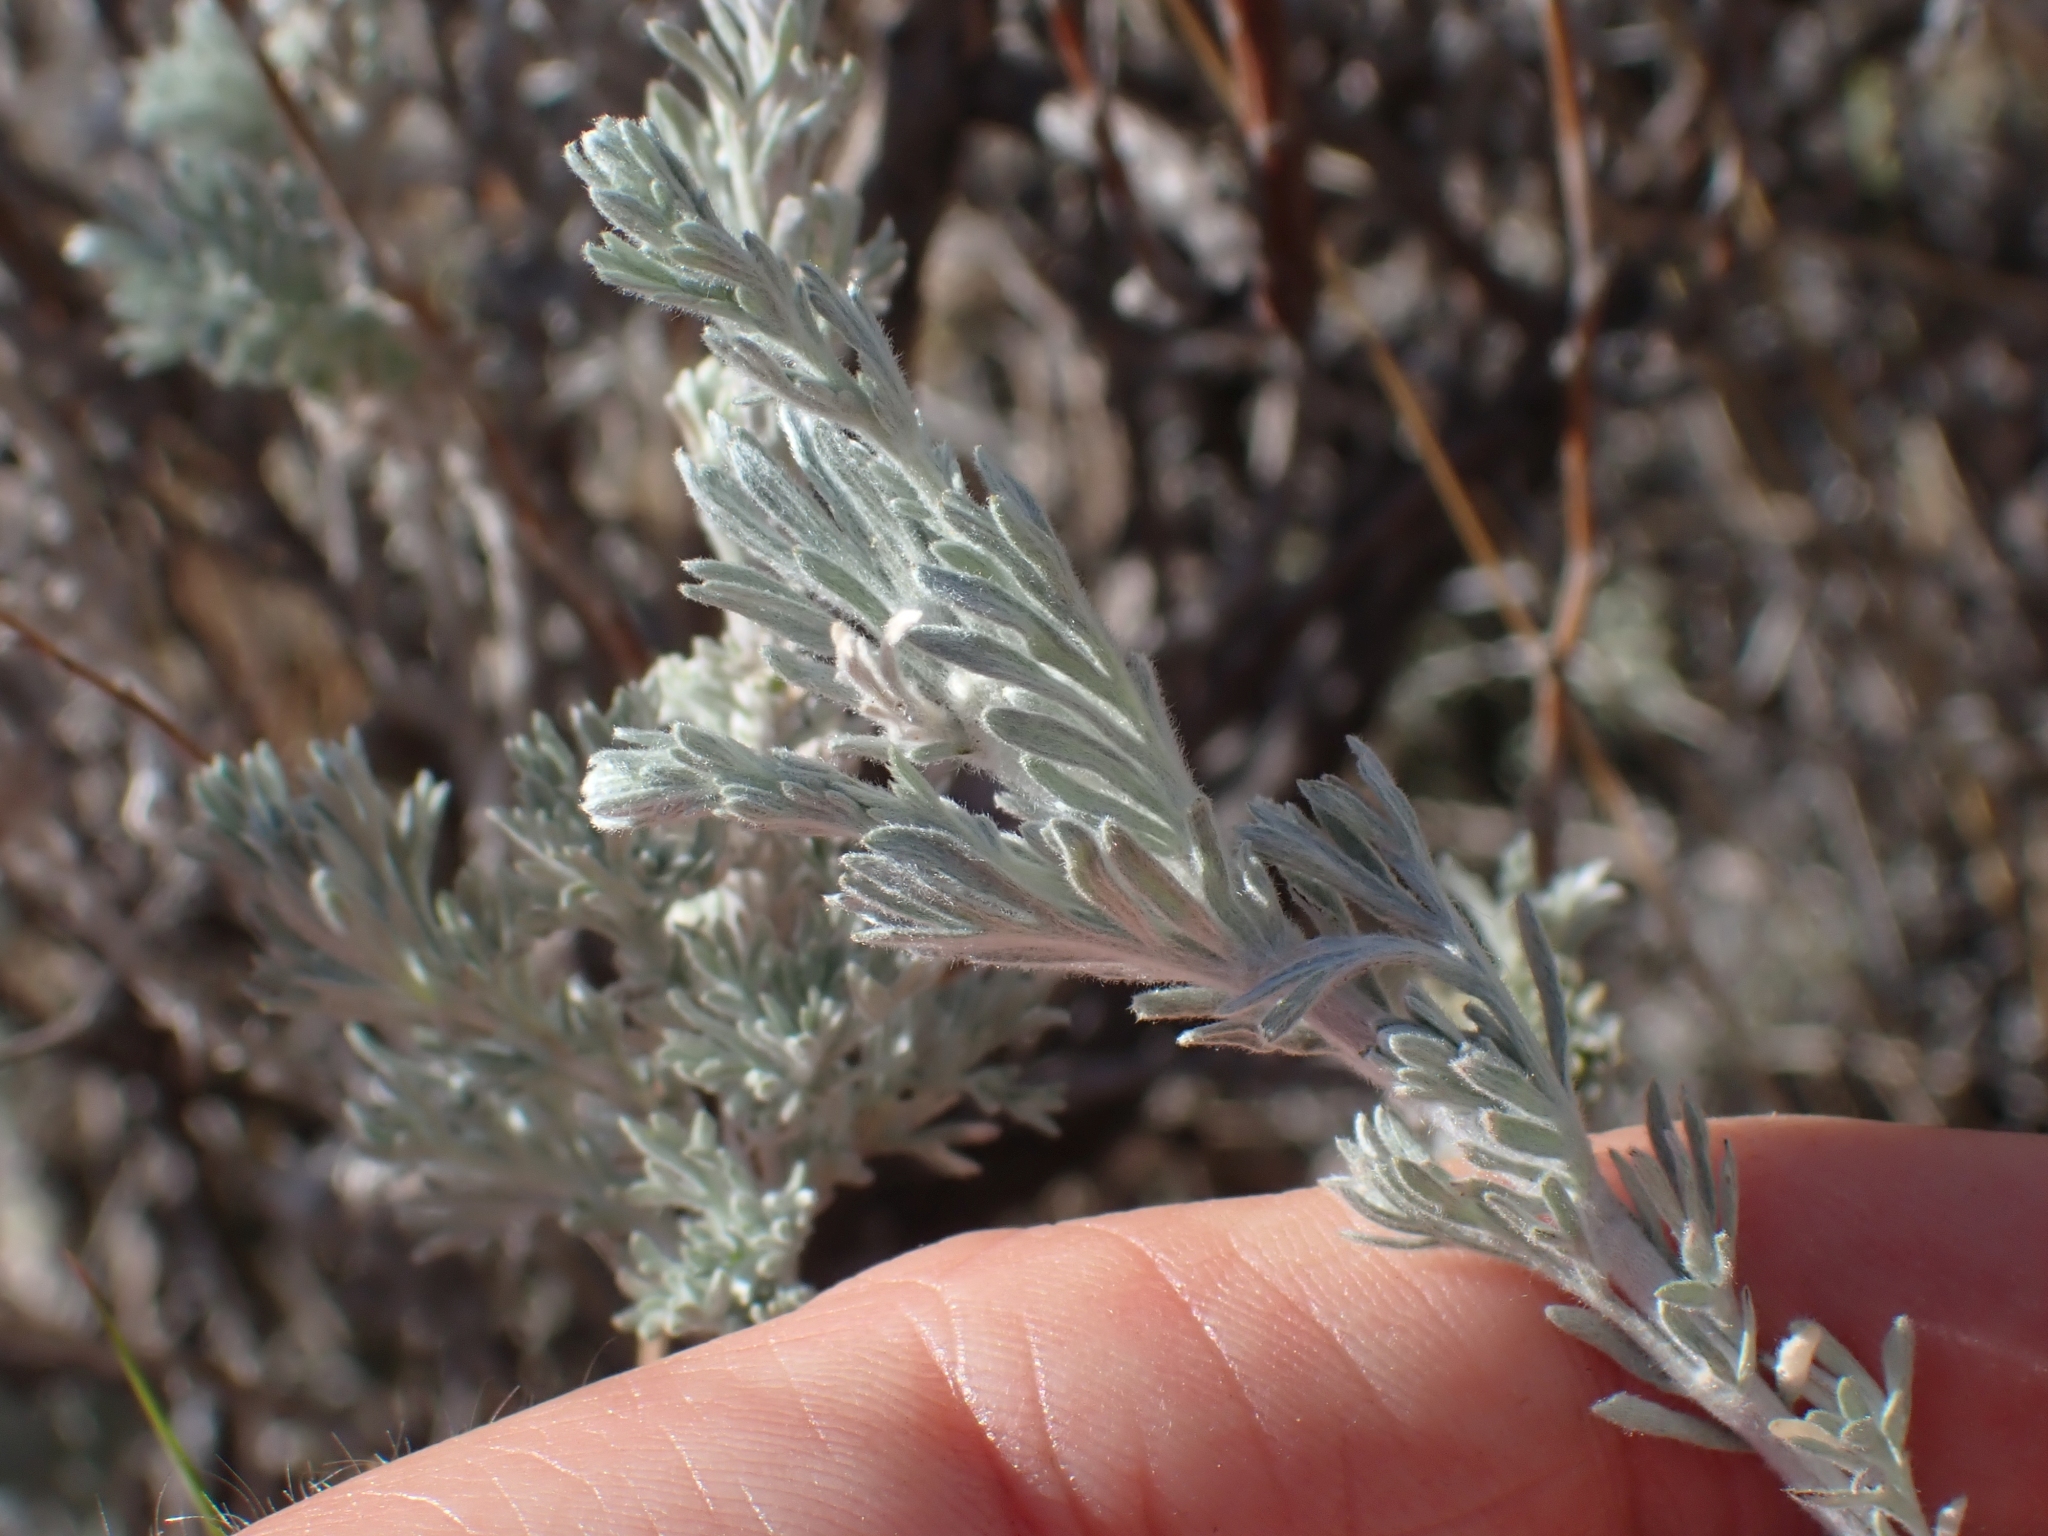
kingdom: Plantae
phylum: Tracheophyta
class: Magnoliopsida
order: Asterales
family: Asteraceae
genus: Artemisia
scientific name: Artemisia frigida
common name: Prairie sagewort
